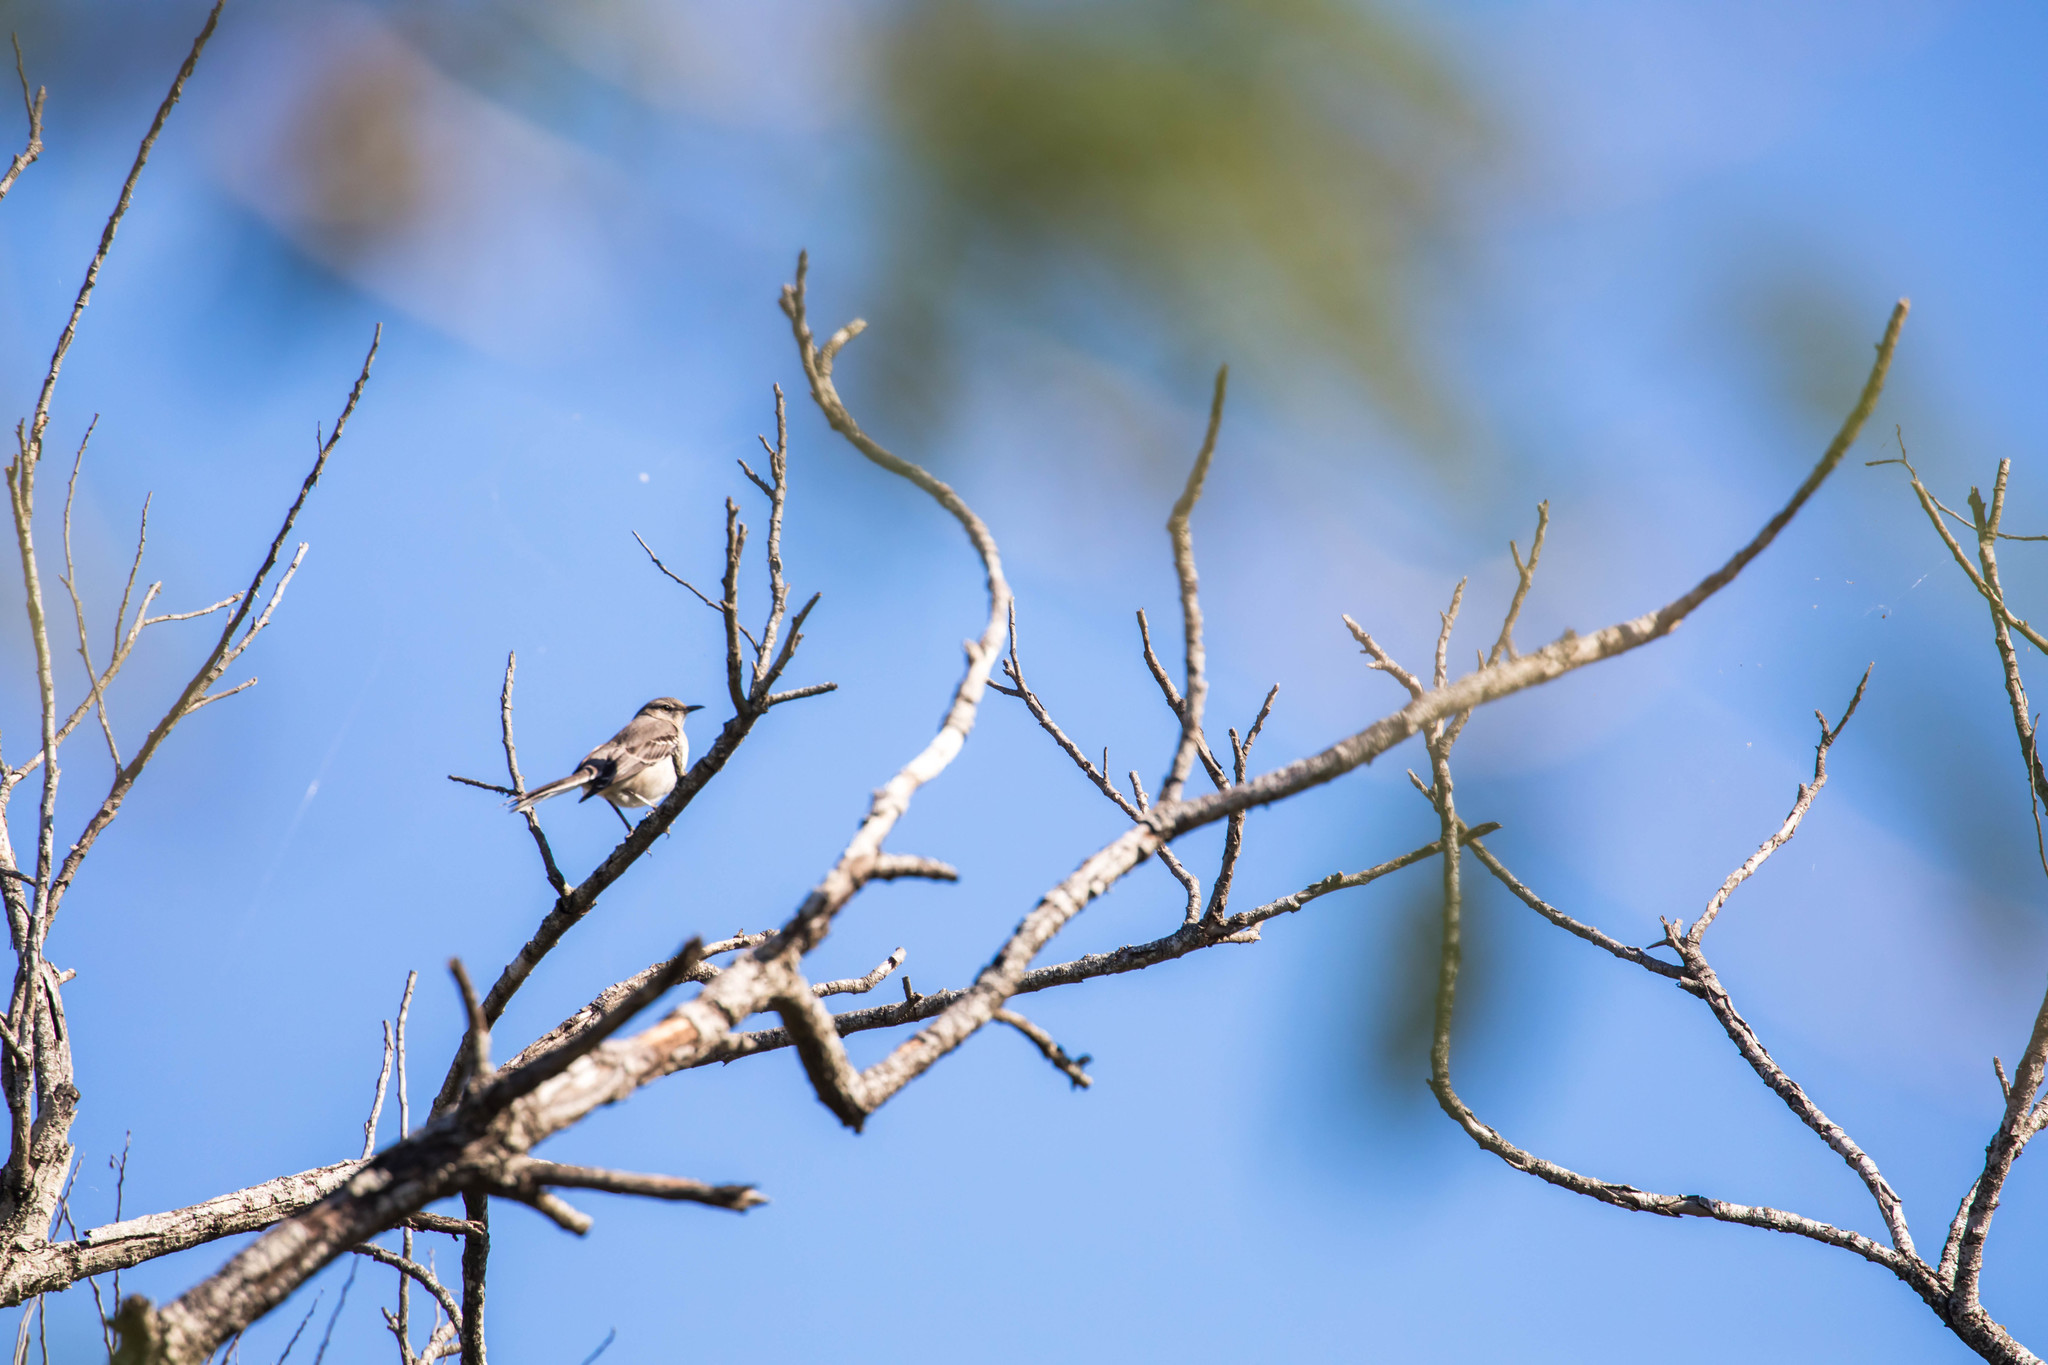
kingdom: Animalia
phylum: Chordata
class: Aves
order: Passeriformes
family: Mimidae
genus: Mimus
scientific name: Mimus polyglottos
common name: Northern mockingbird
